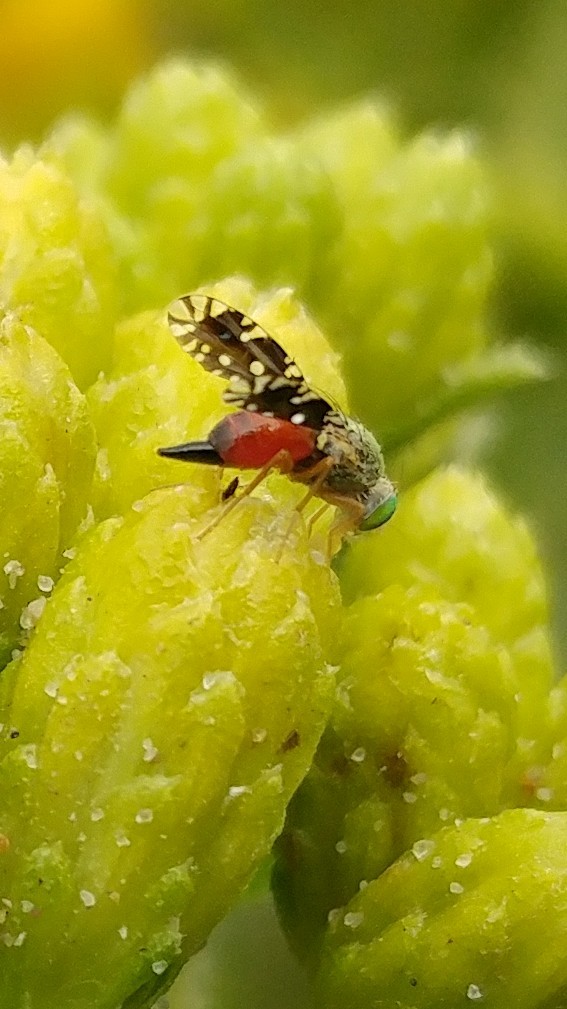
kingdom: Animalia
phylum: Arthropoda
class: Insecta
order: Diptera
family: Tephritidae
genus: Euaresta
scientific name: Euaresta stelligera
